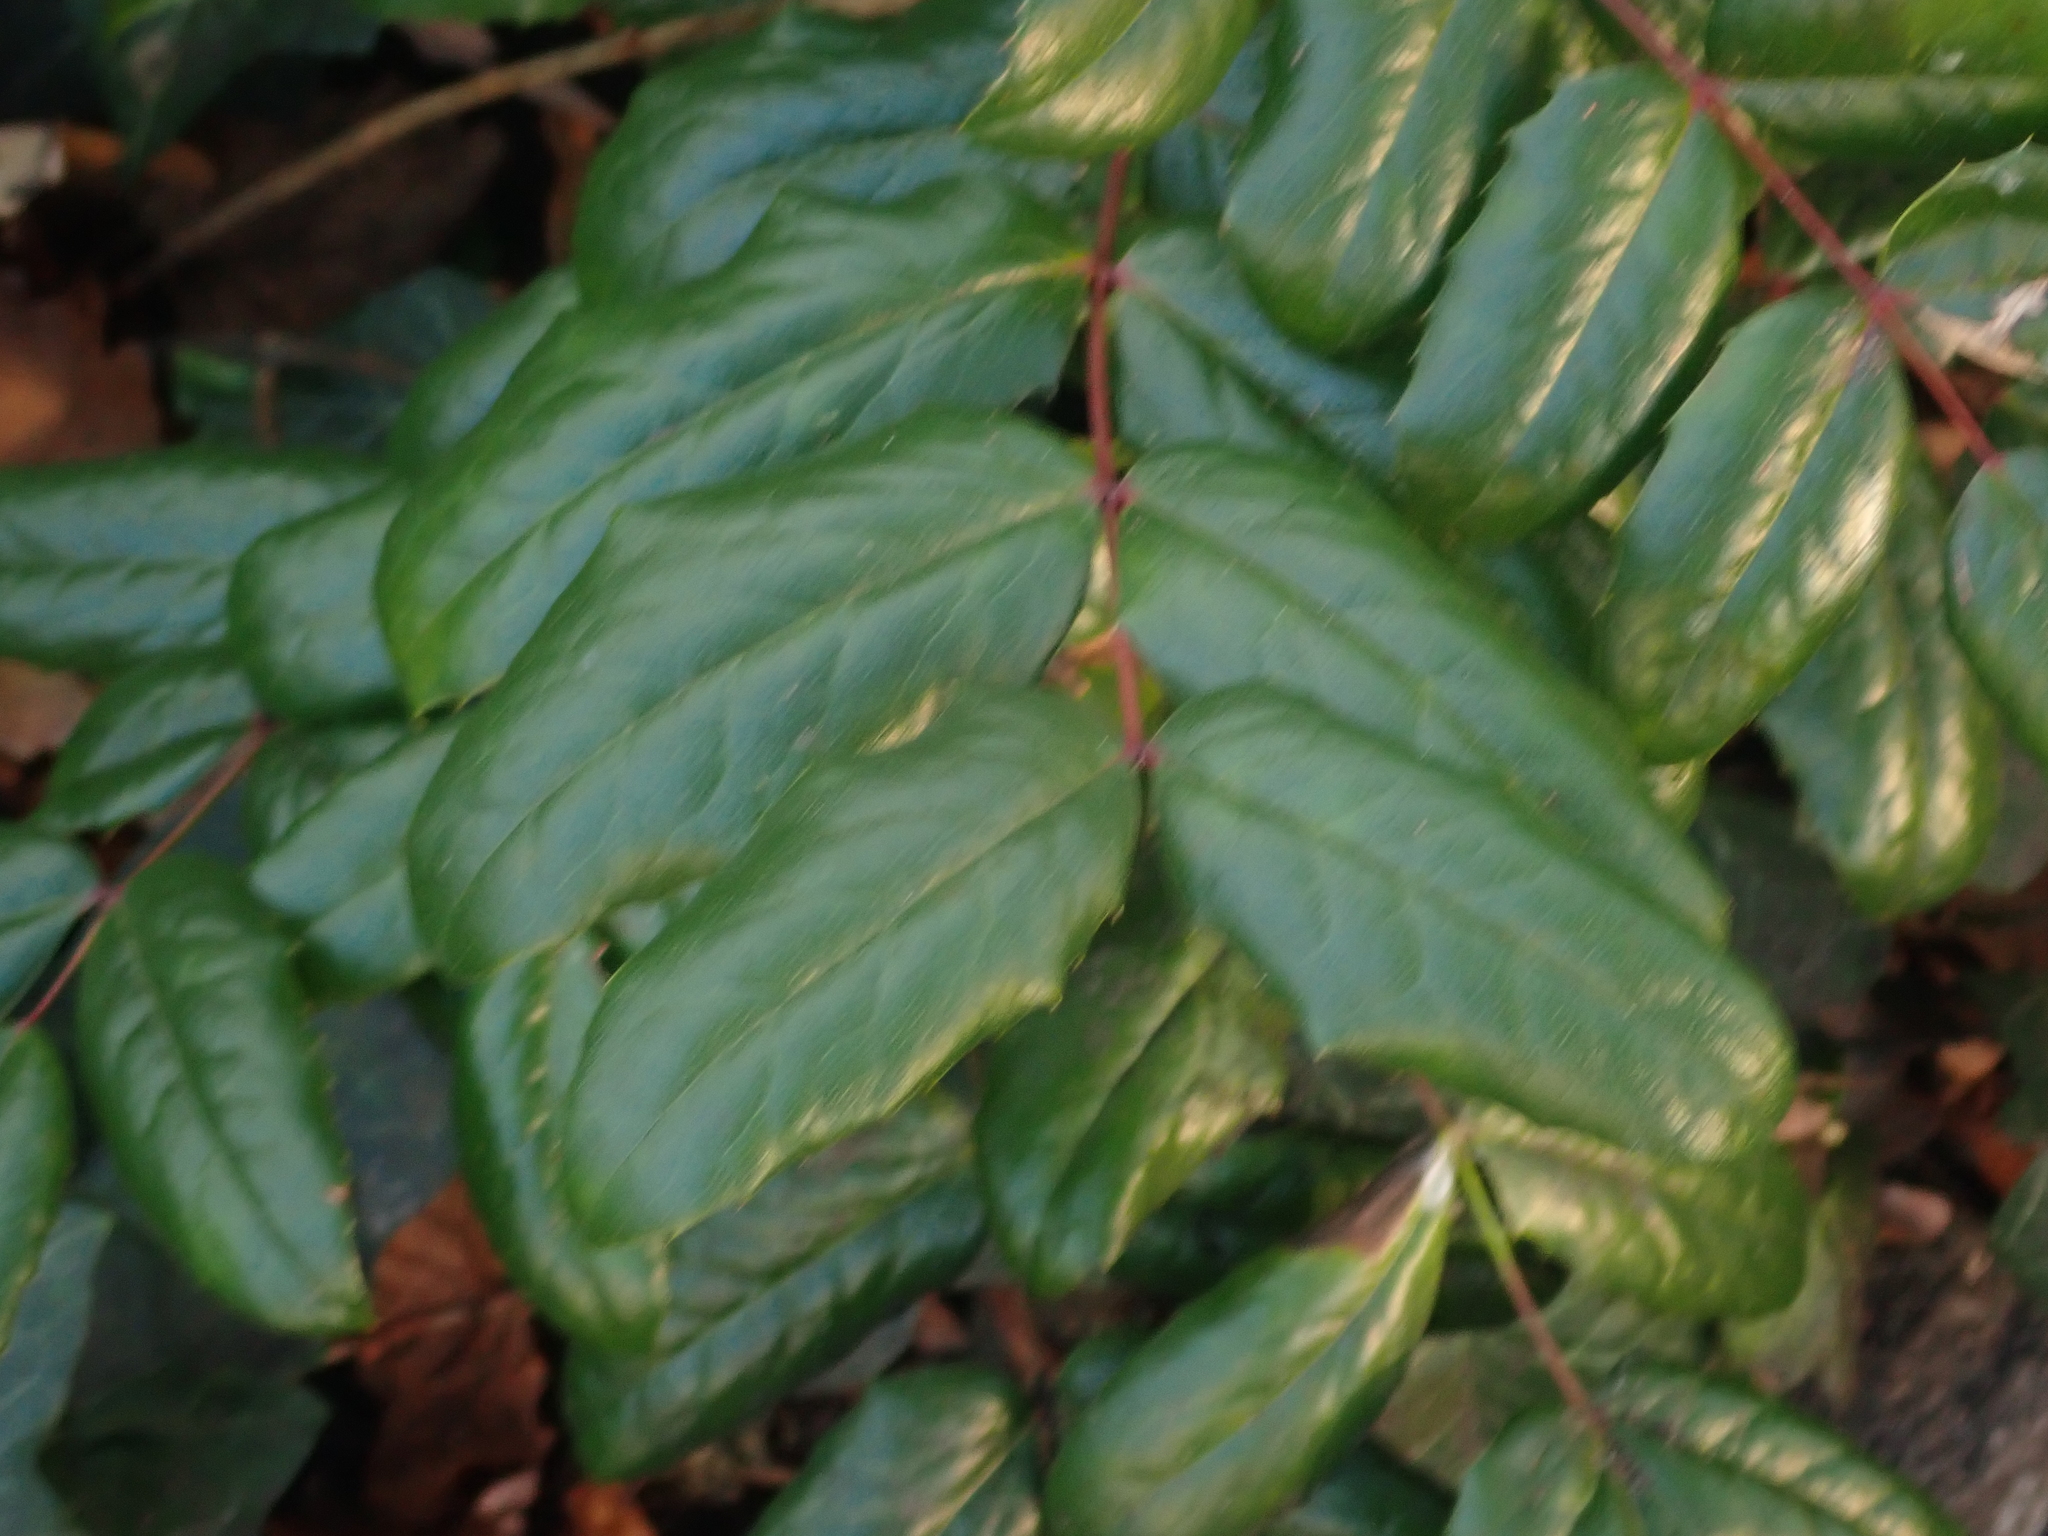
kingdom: Plantae
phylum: Tracheophyta
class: Magnoliopsida
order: Ranunculales
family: Berberidaceae
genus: Mahonia
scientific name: Mahonia aquifolium
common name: Oregon-grape
